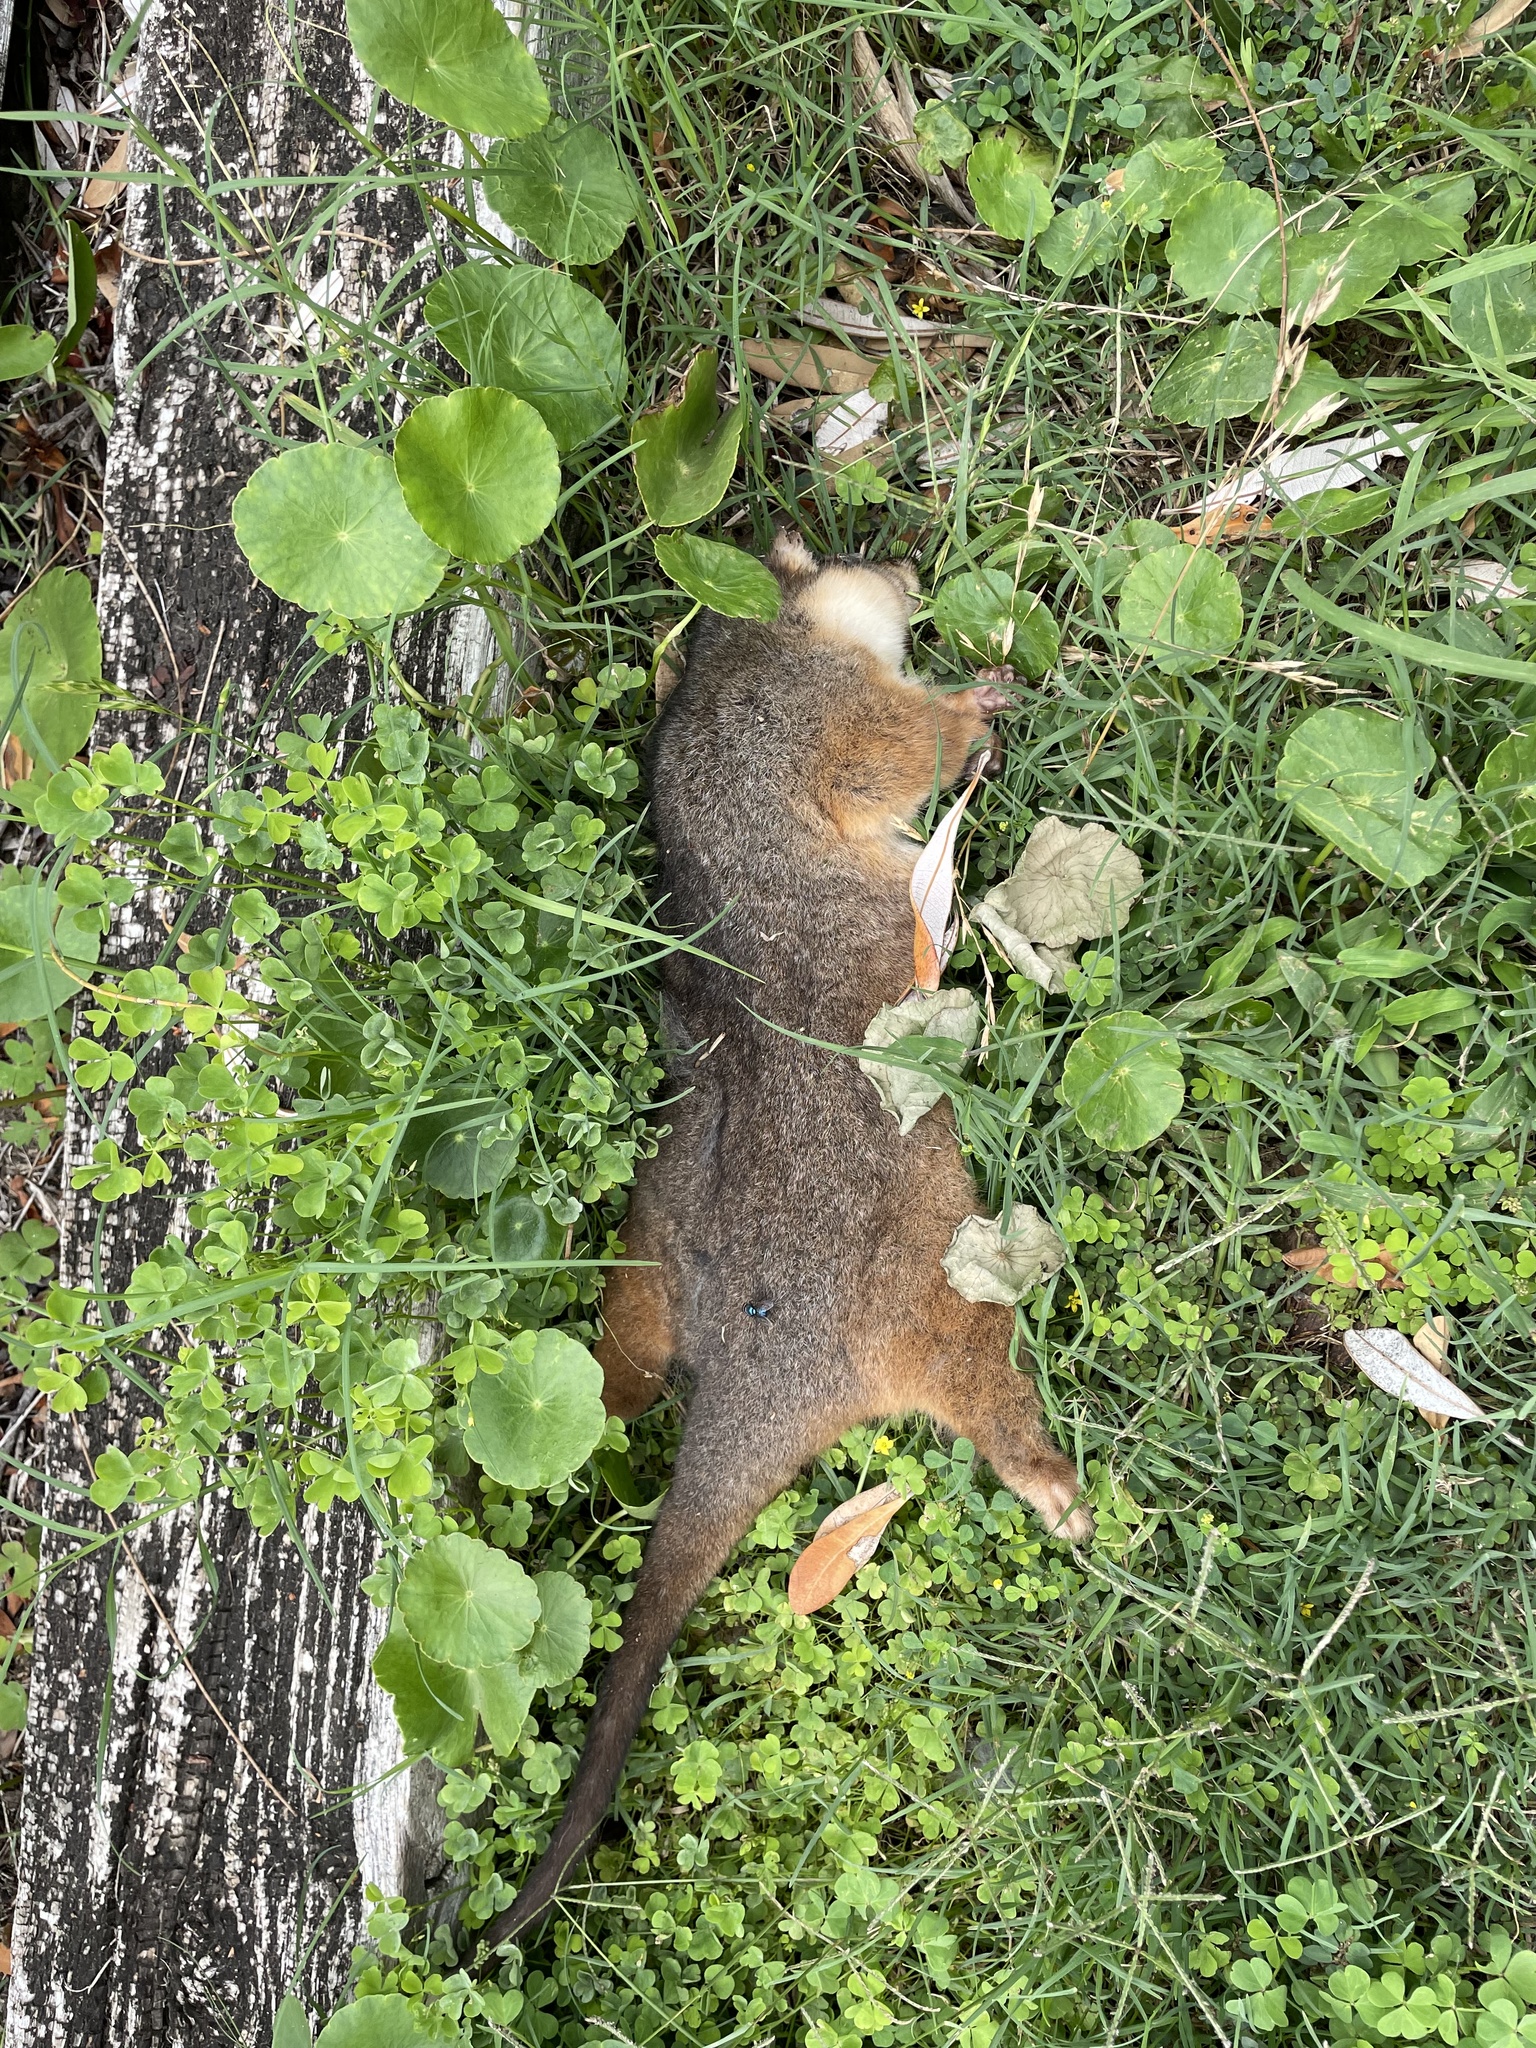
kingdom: Animalia
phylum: Chordata
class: Mammalia
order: Diprotodontia
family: Pseudocheiridae
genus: Pseudocheirus
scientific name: Pseudocheirus peregrinus
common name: Common ringtail possum
